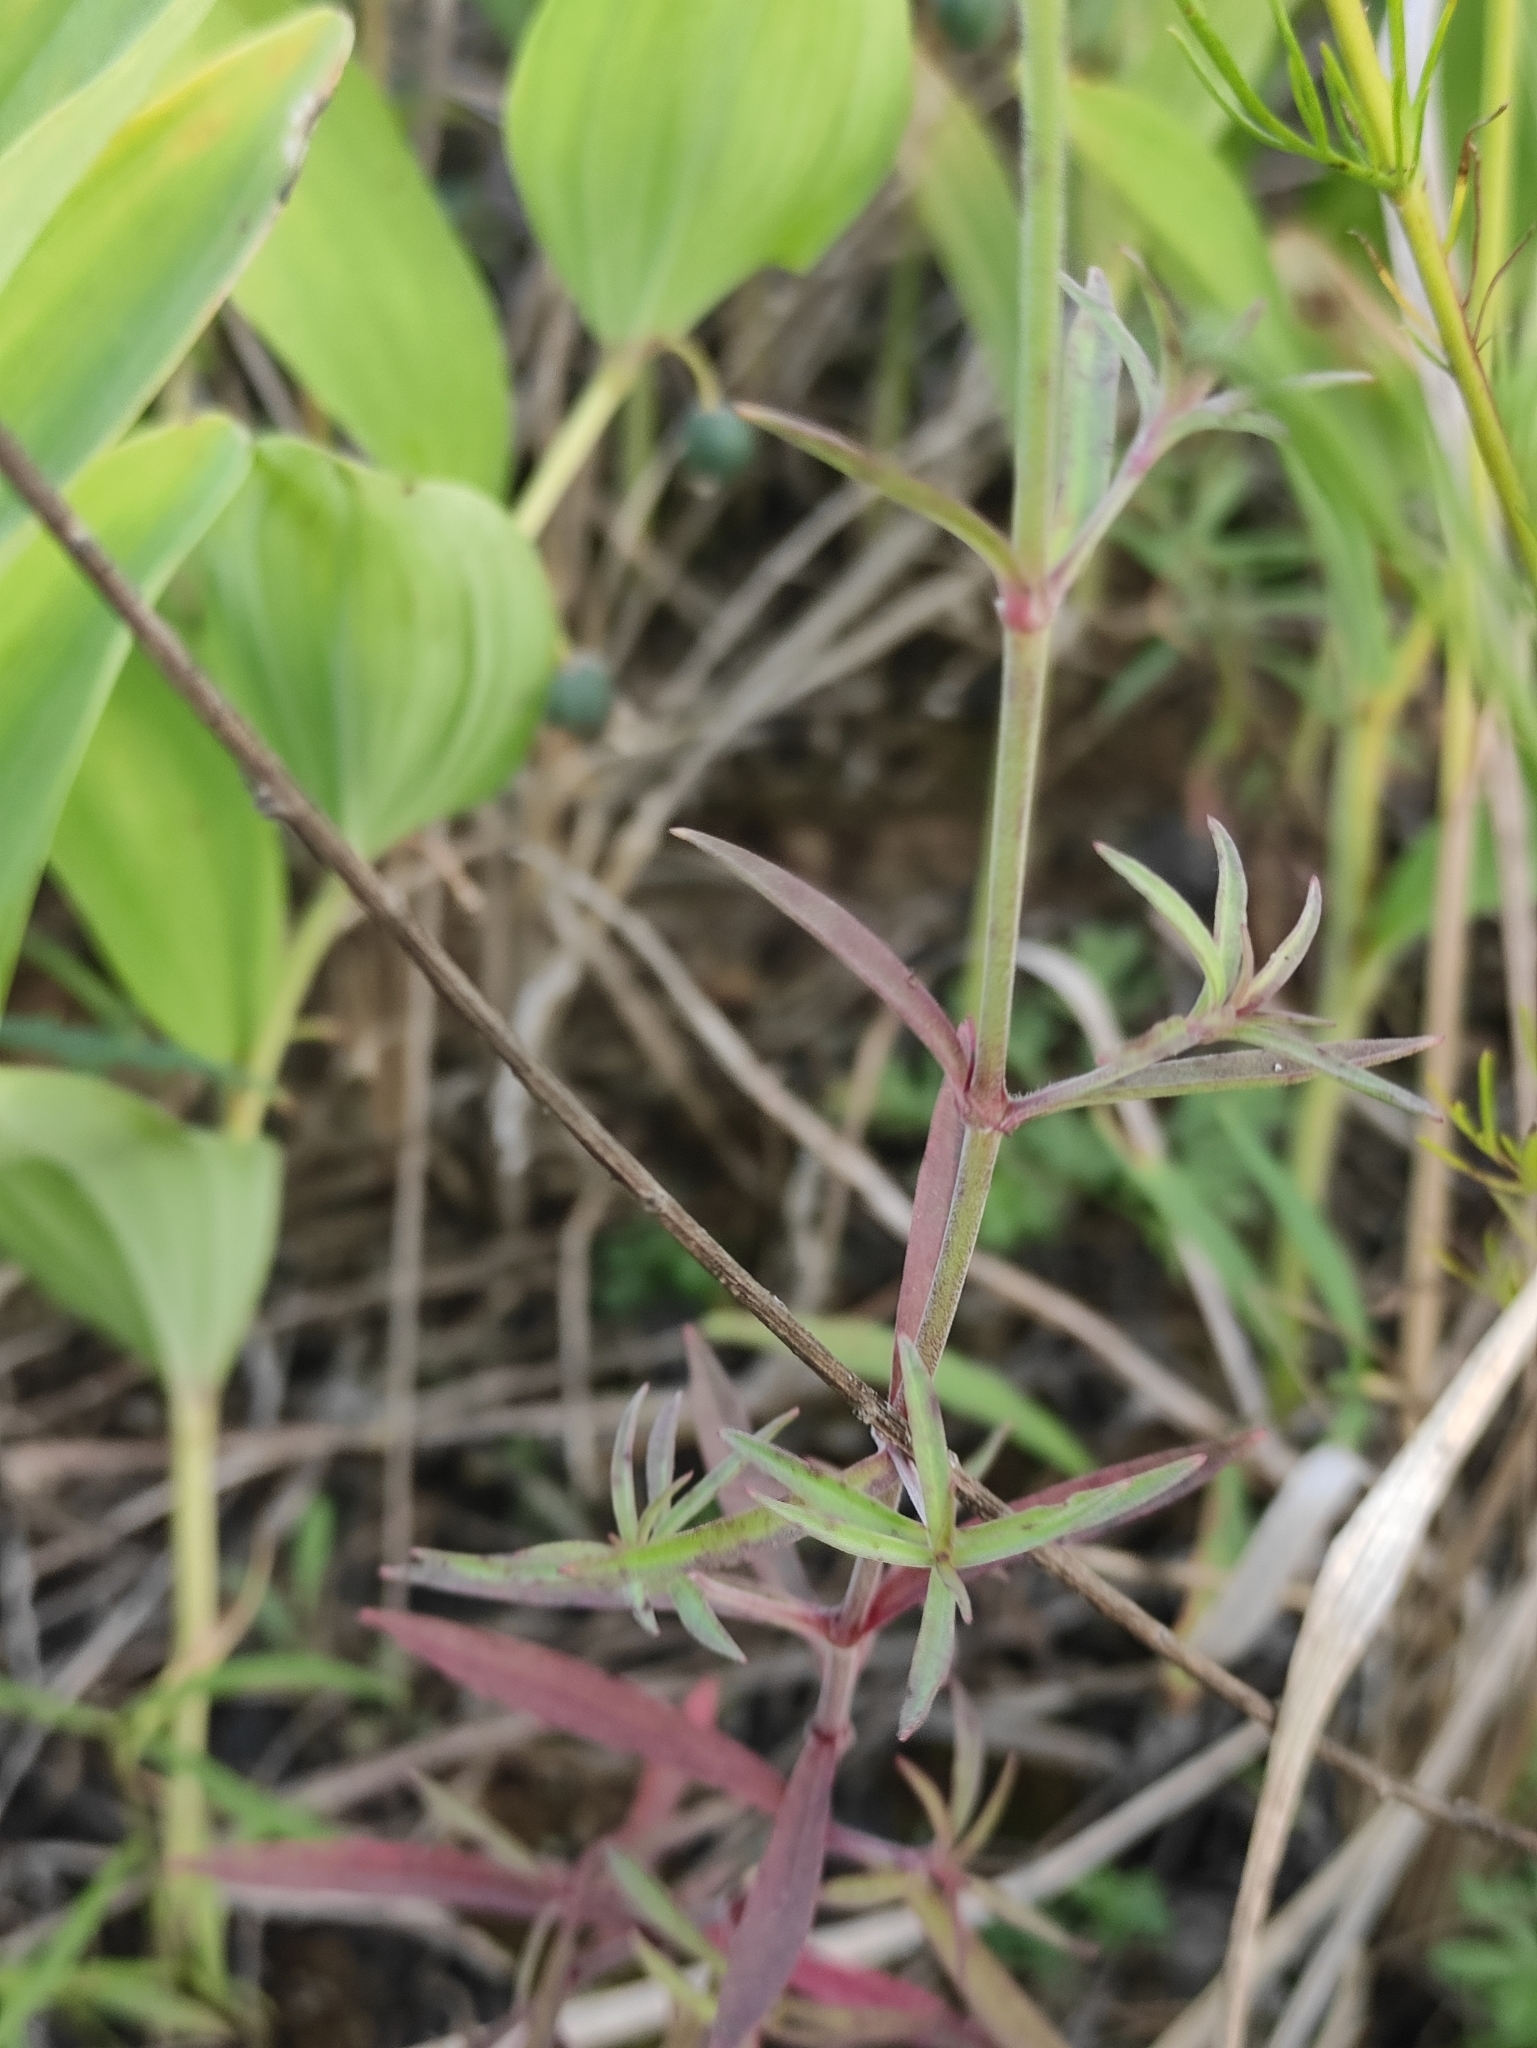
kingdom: Plantae
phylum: Tracheophyta
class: Magnoliopsida
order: Caryophyllales
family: Caryophyllaceae
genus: Silene
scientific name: Silene amoena
